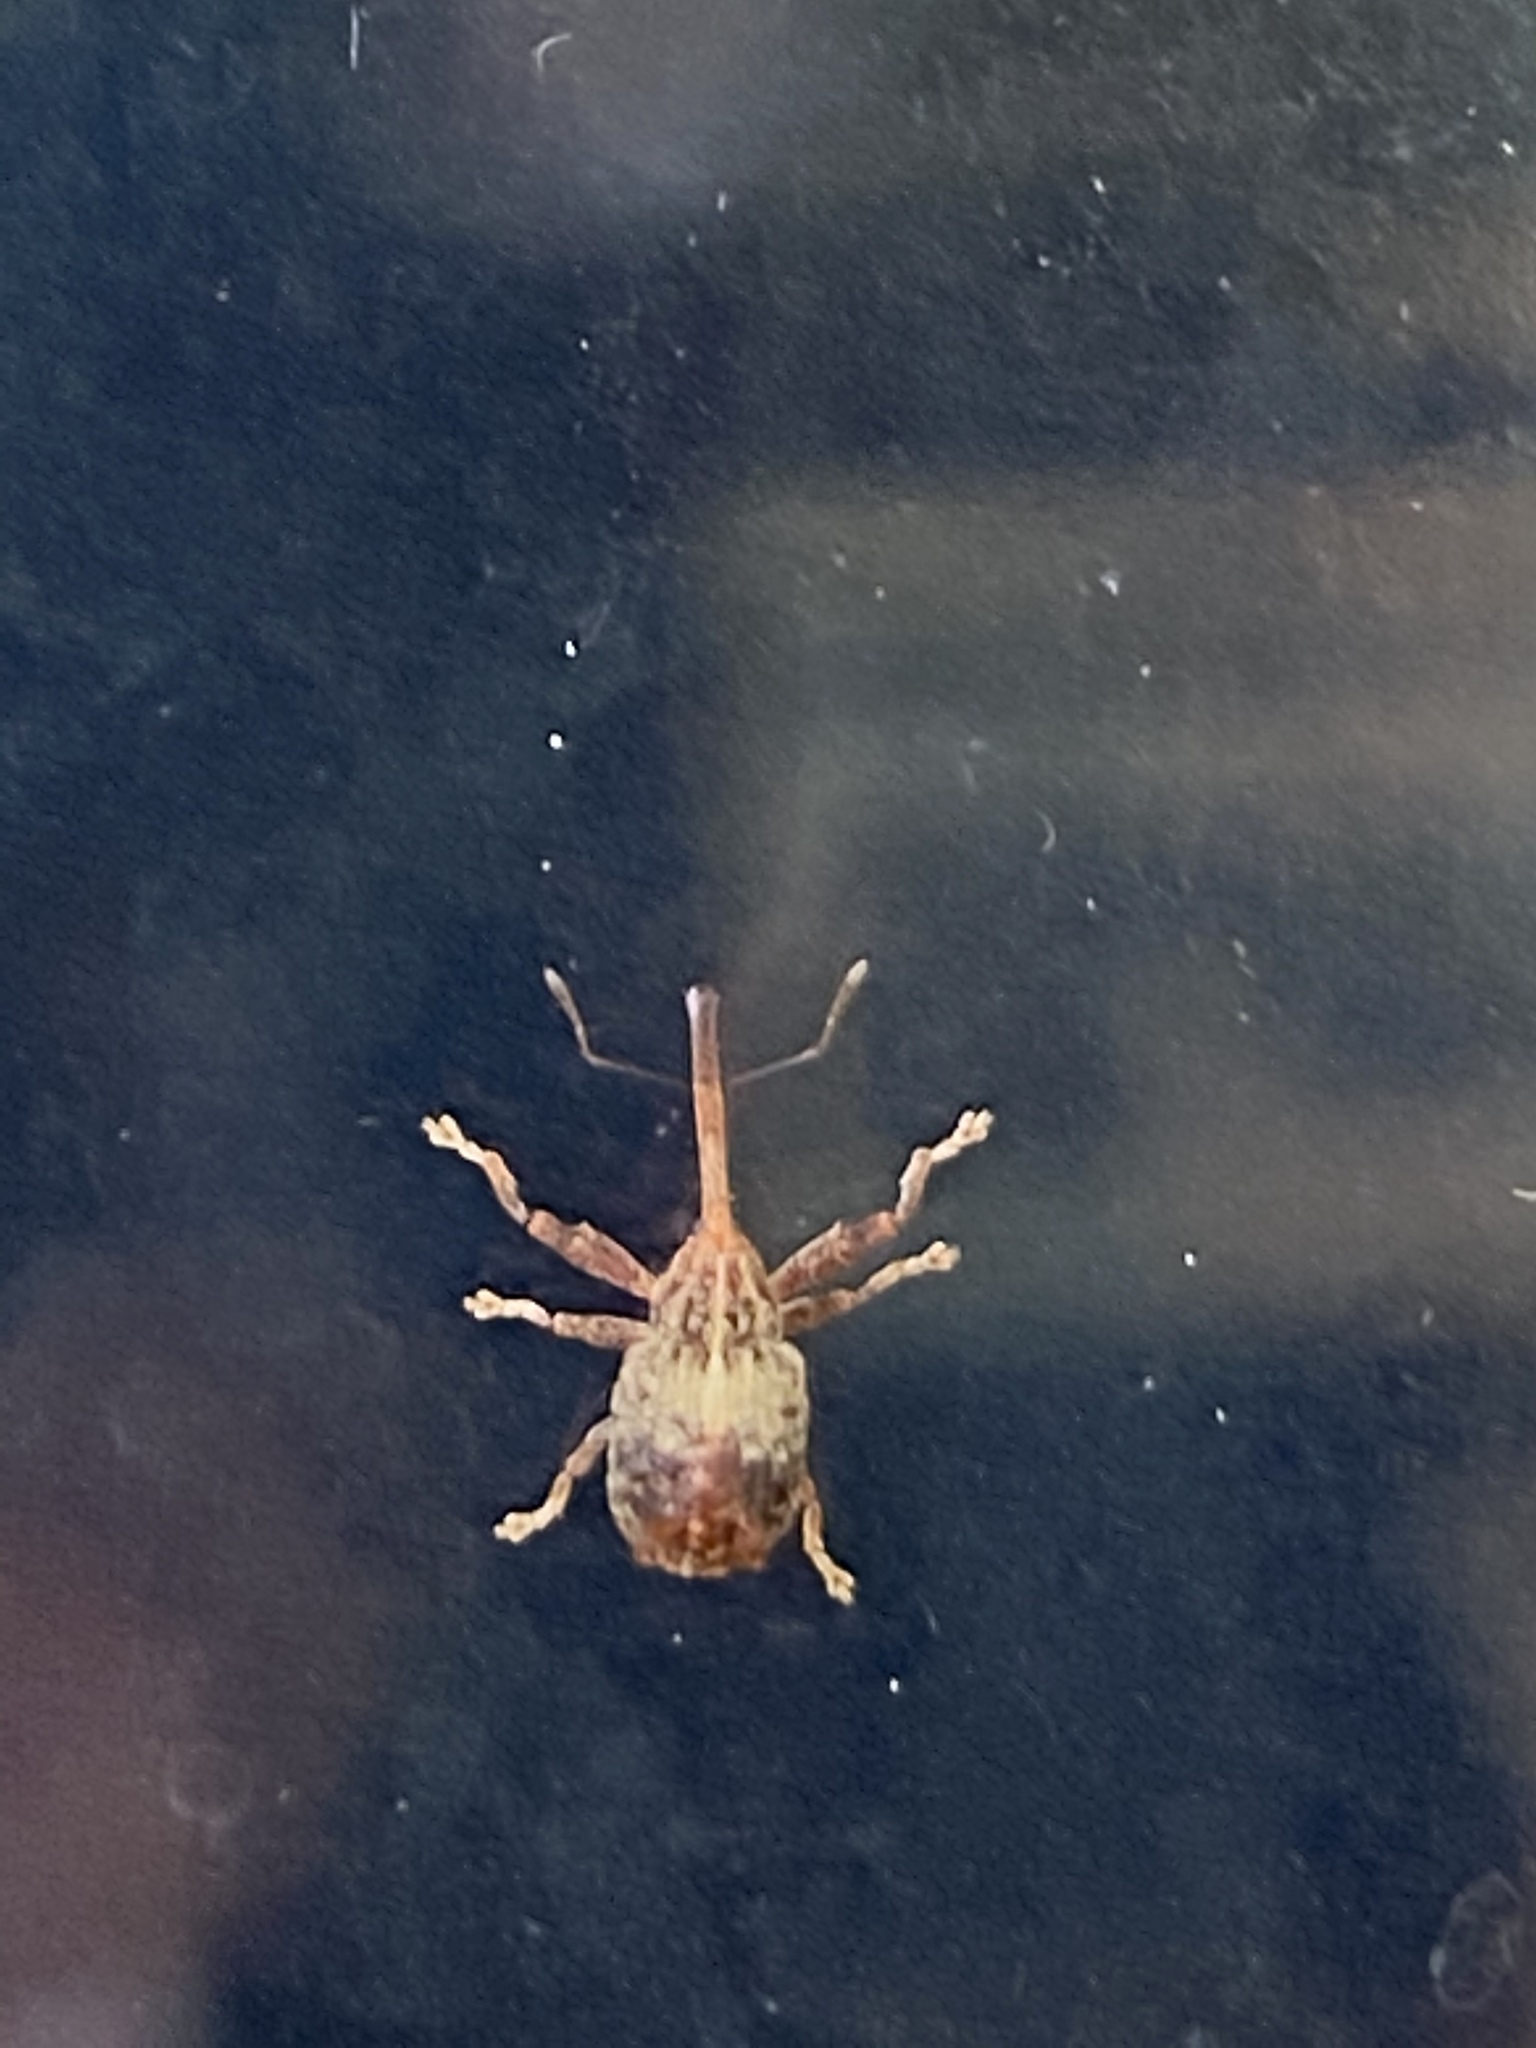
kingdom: Animalia
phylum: Arthropoda
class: Insecta
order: Coleoptera
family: Curculionidae
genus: Anthonomus
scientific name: Anthonomus quadrigibbus
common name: Apple curculio
